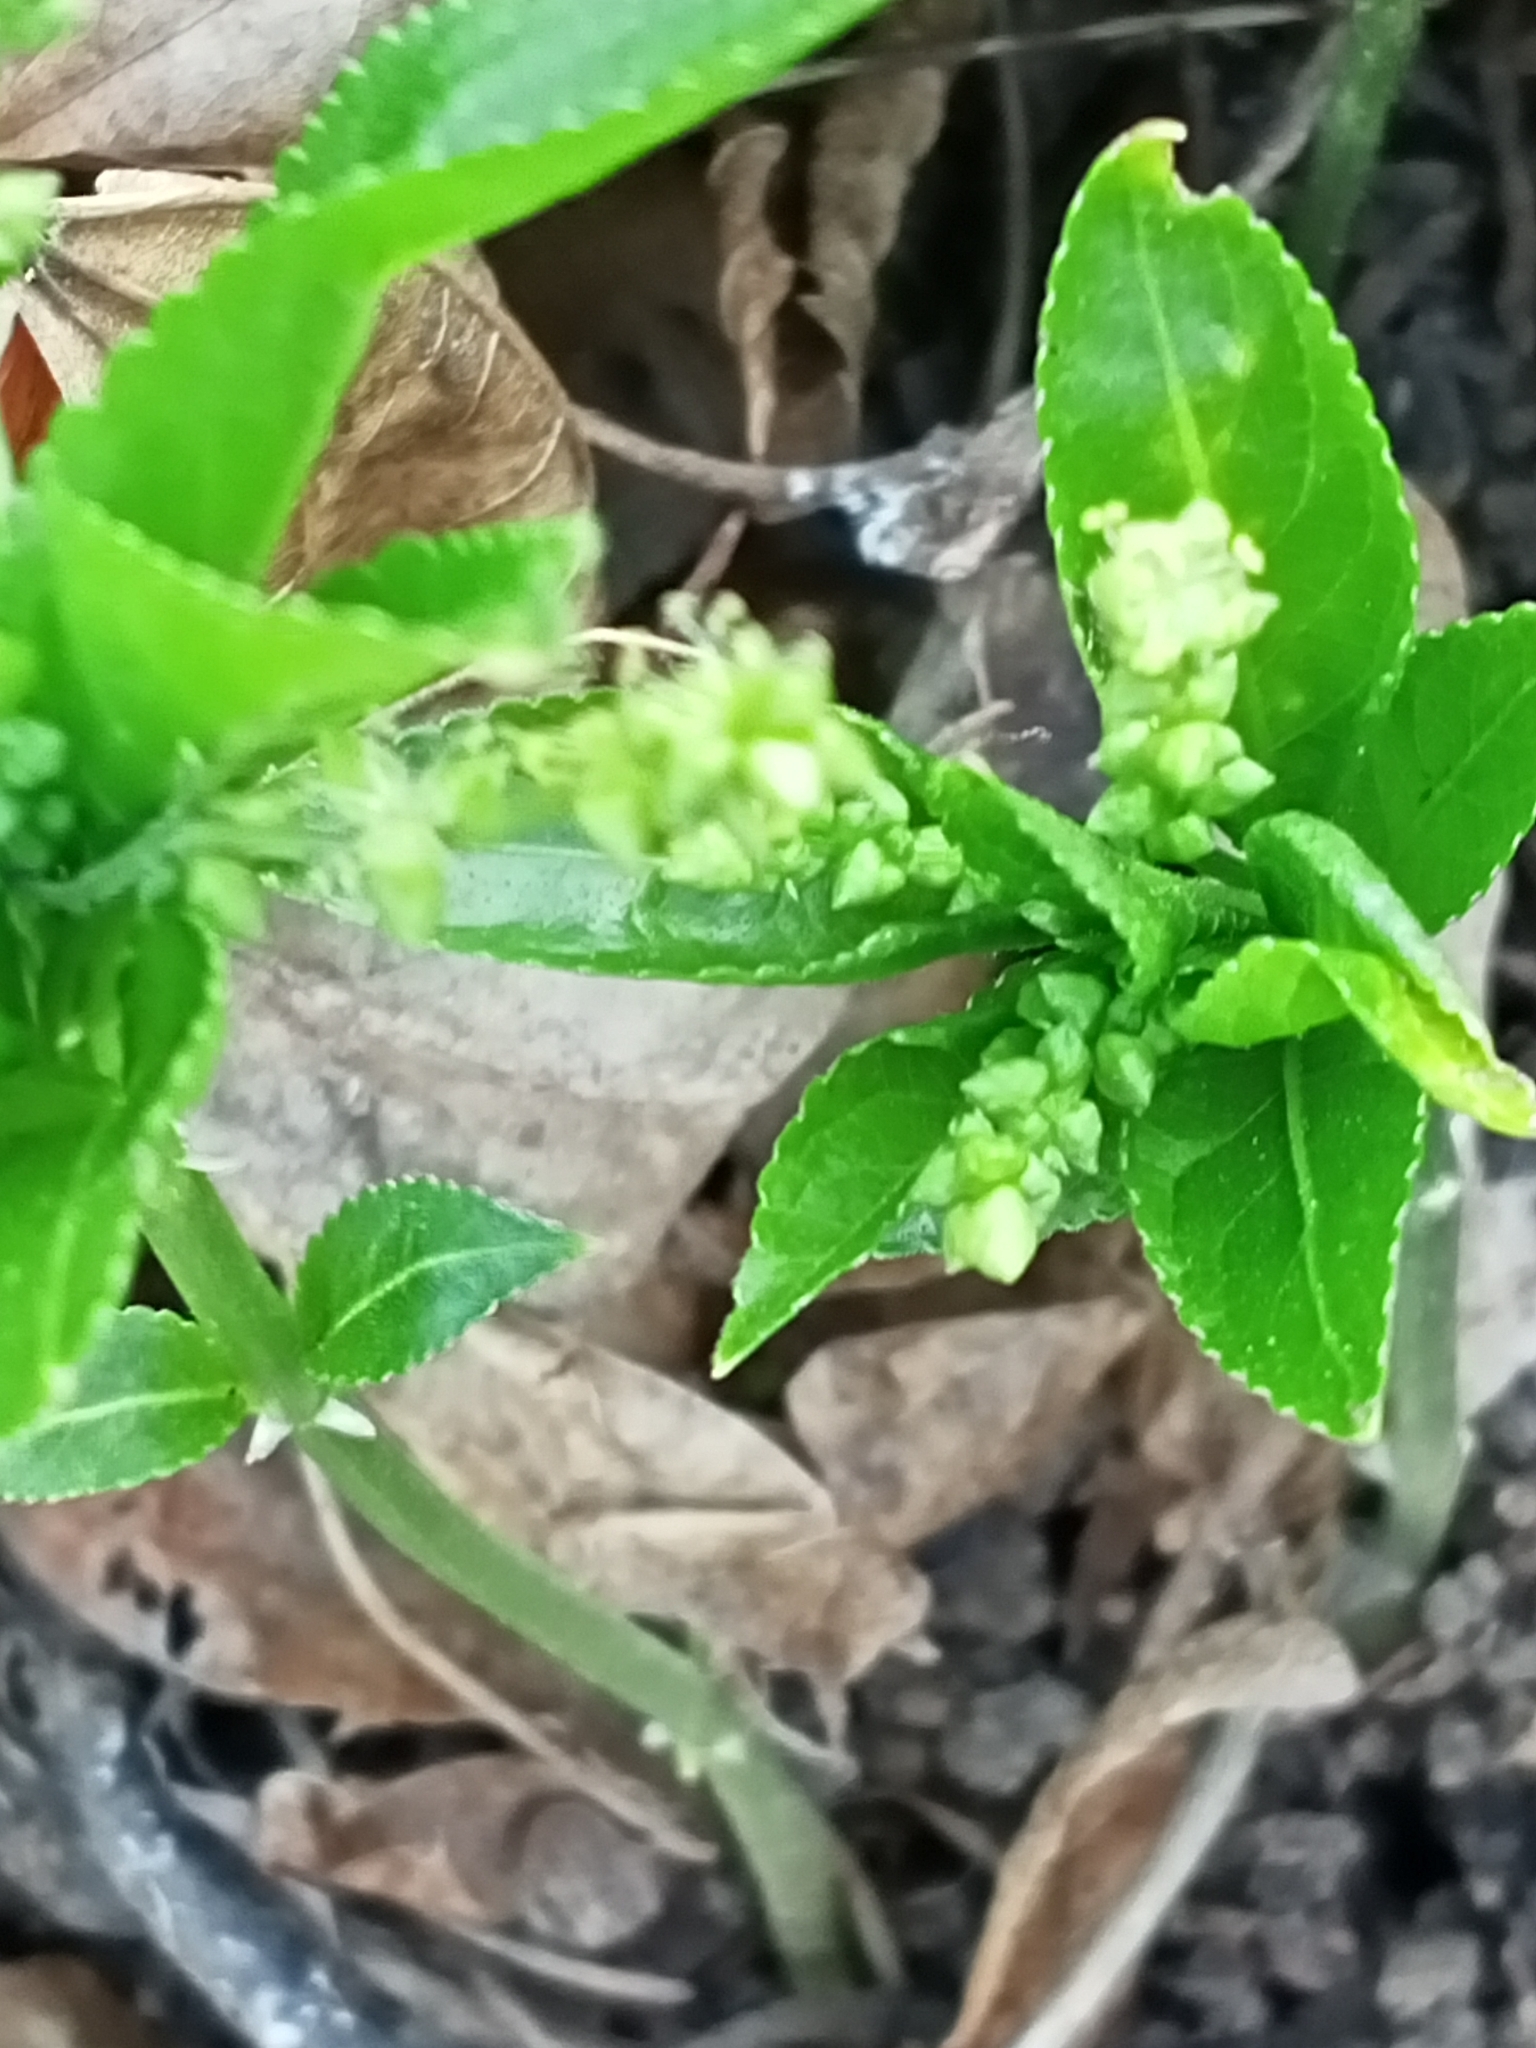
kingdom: Plantae
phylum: Tracheophyta
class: Magnoliopsida
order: Malpighiales
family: Euphorbiaceae
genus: Mercurialis
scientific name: Mercurialis perennis
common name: Dog mercury
